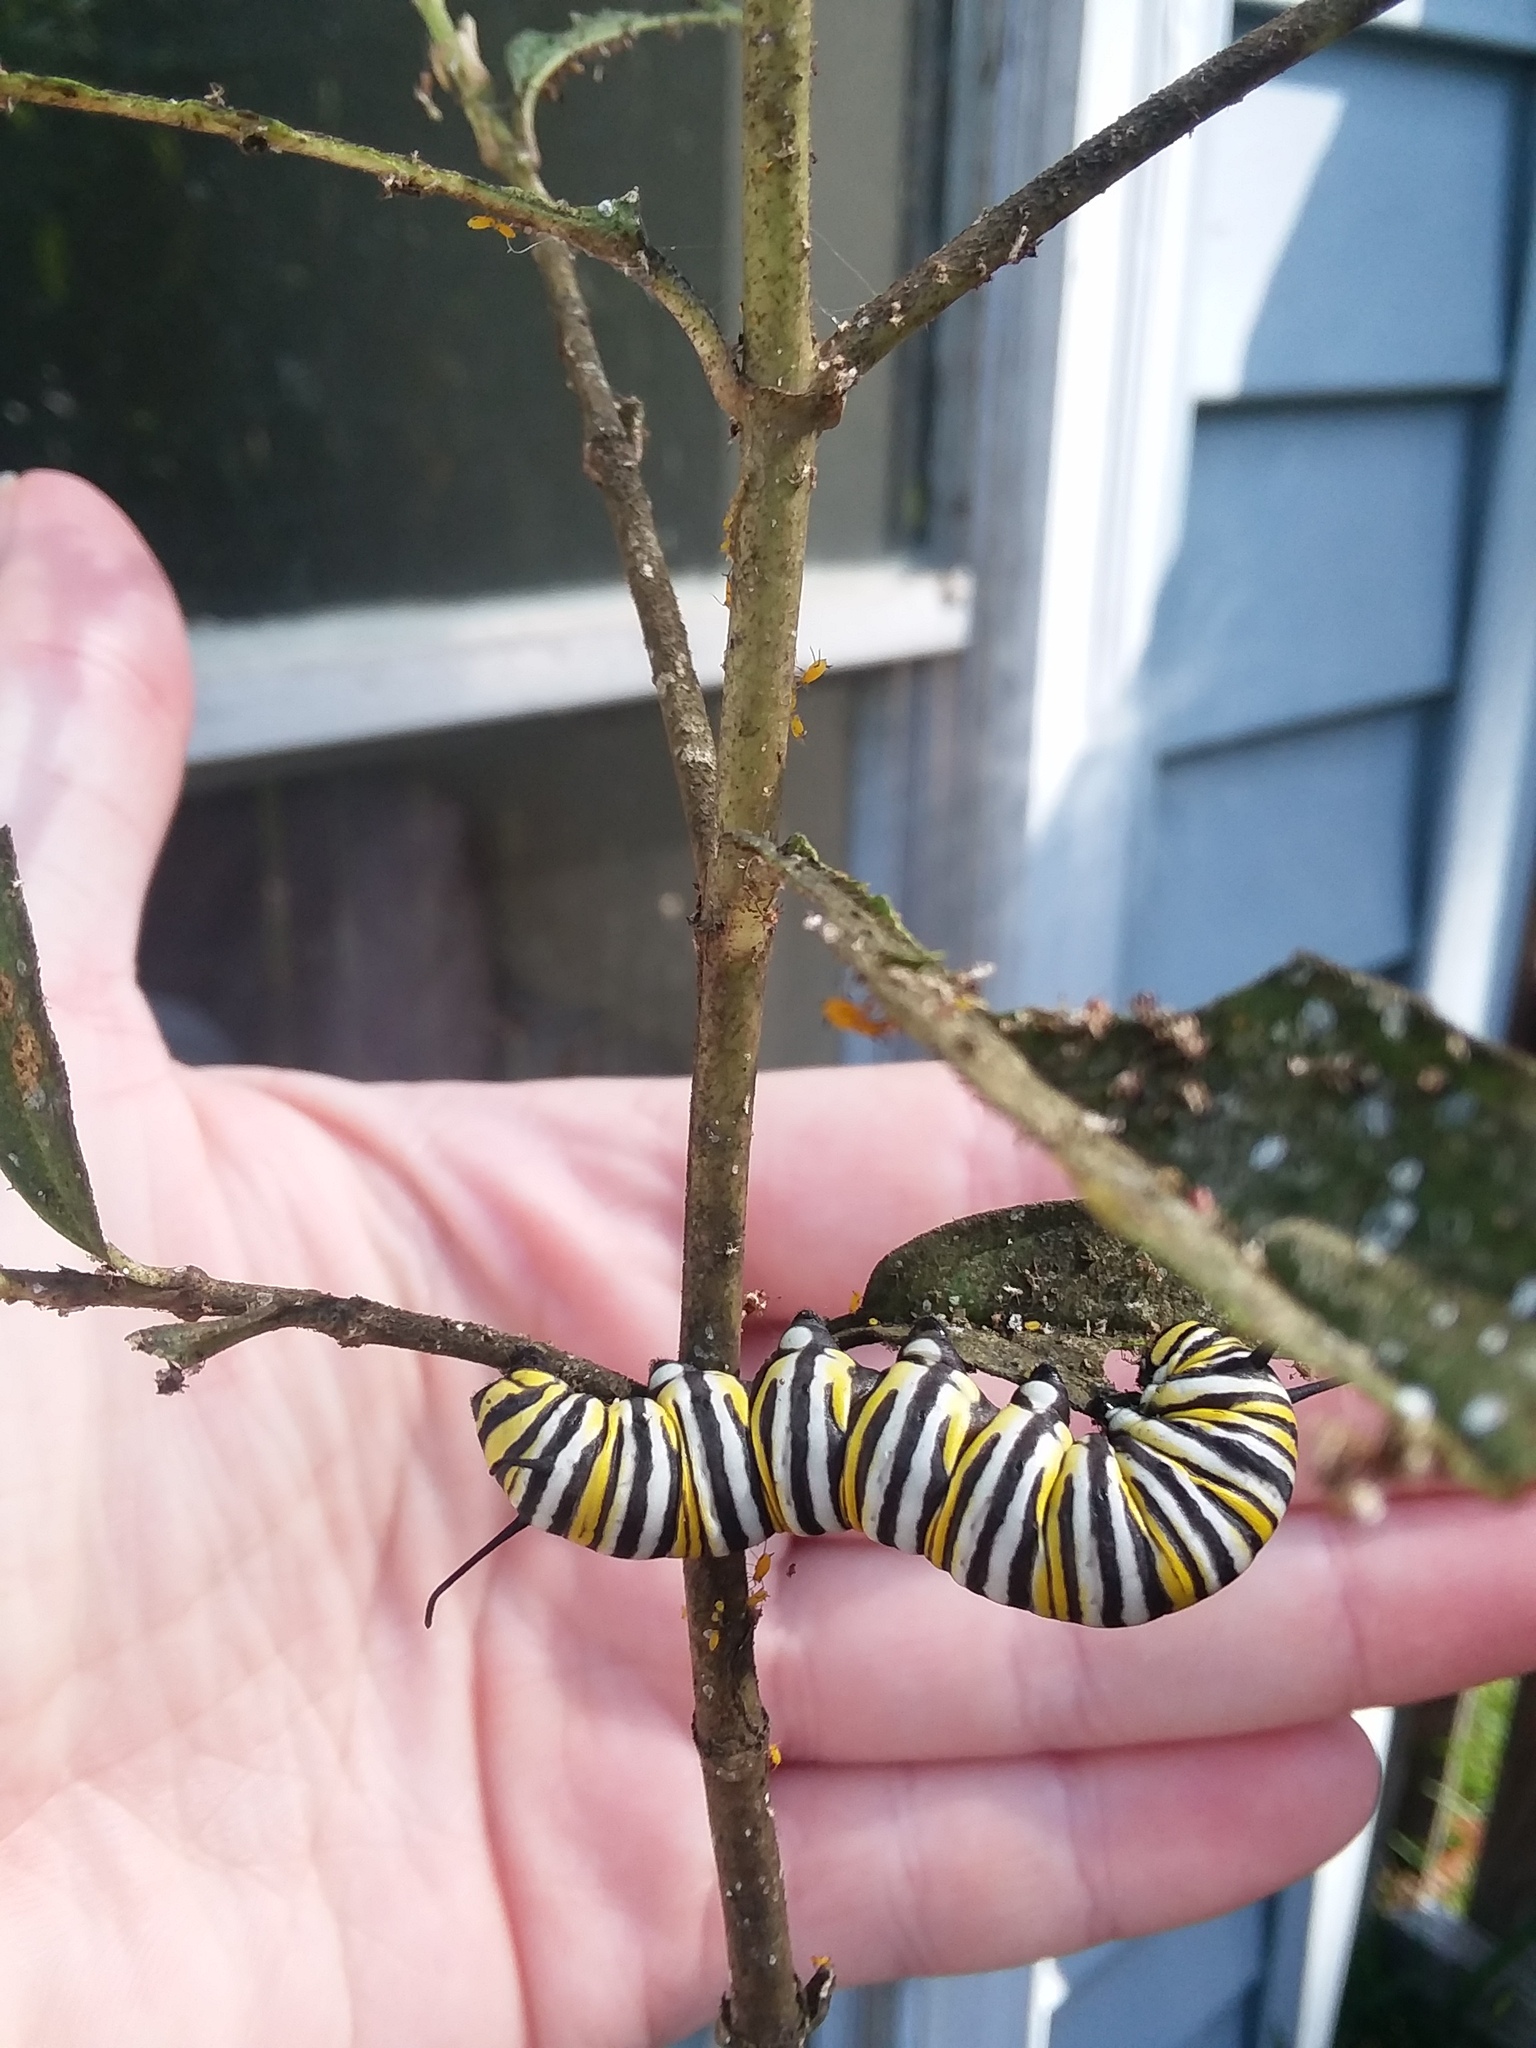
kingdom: Animalia
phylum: Arthropoda
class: Insecta
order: Lepidoptera
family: Nymphalidae
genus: Danaus
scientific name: Danaus plexippus
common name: Monarch
